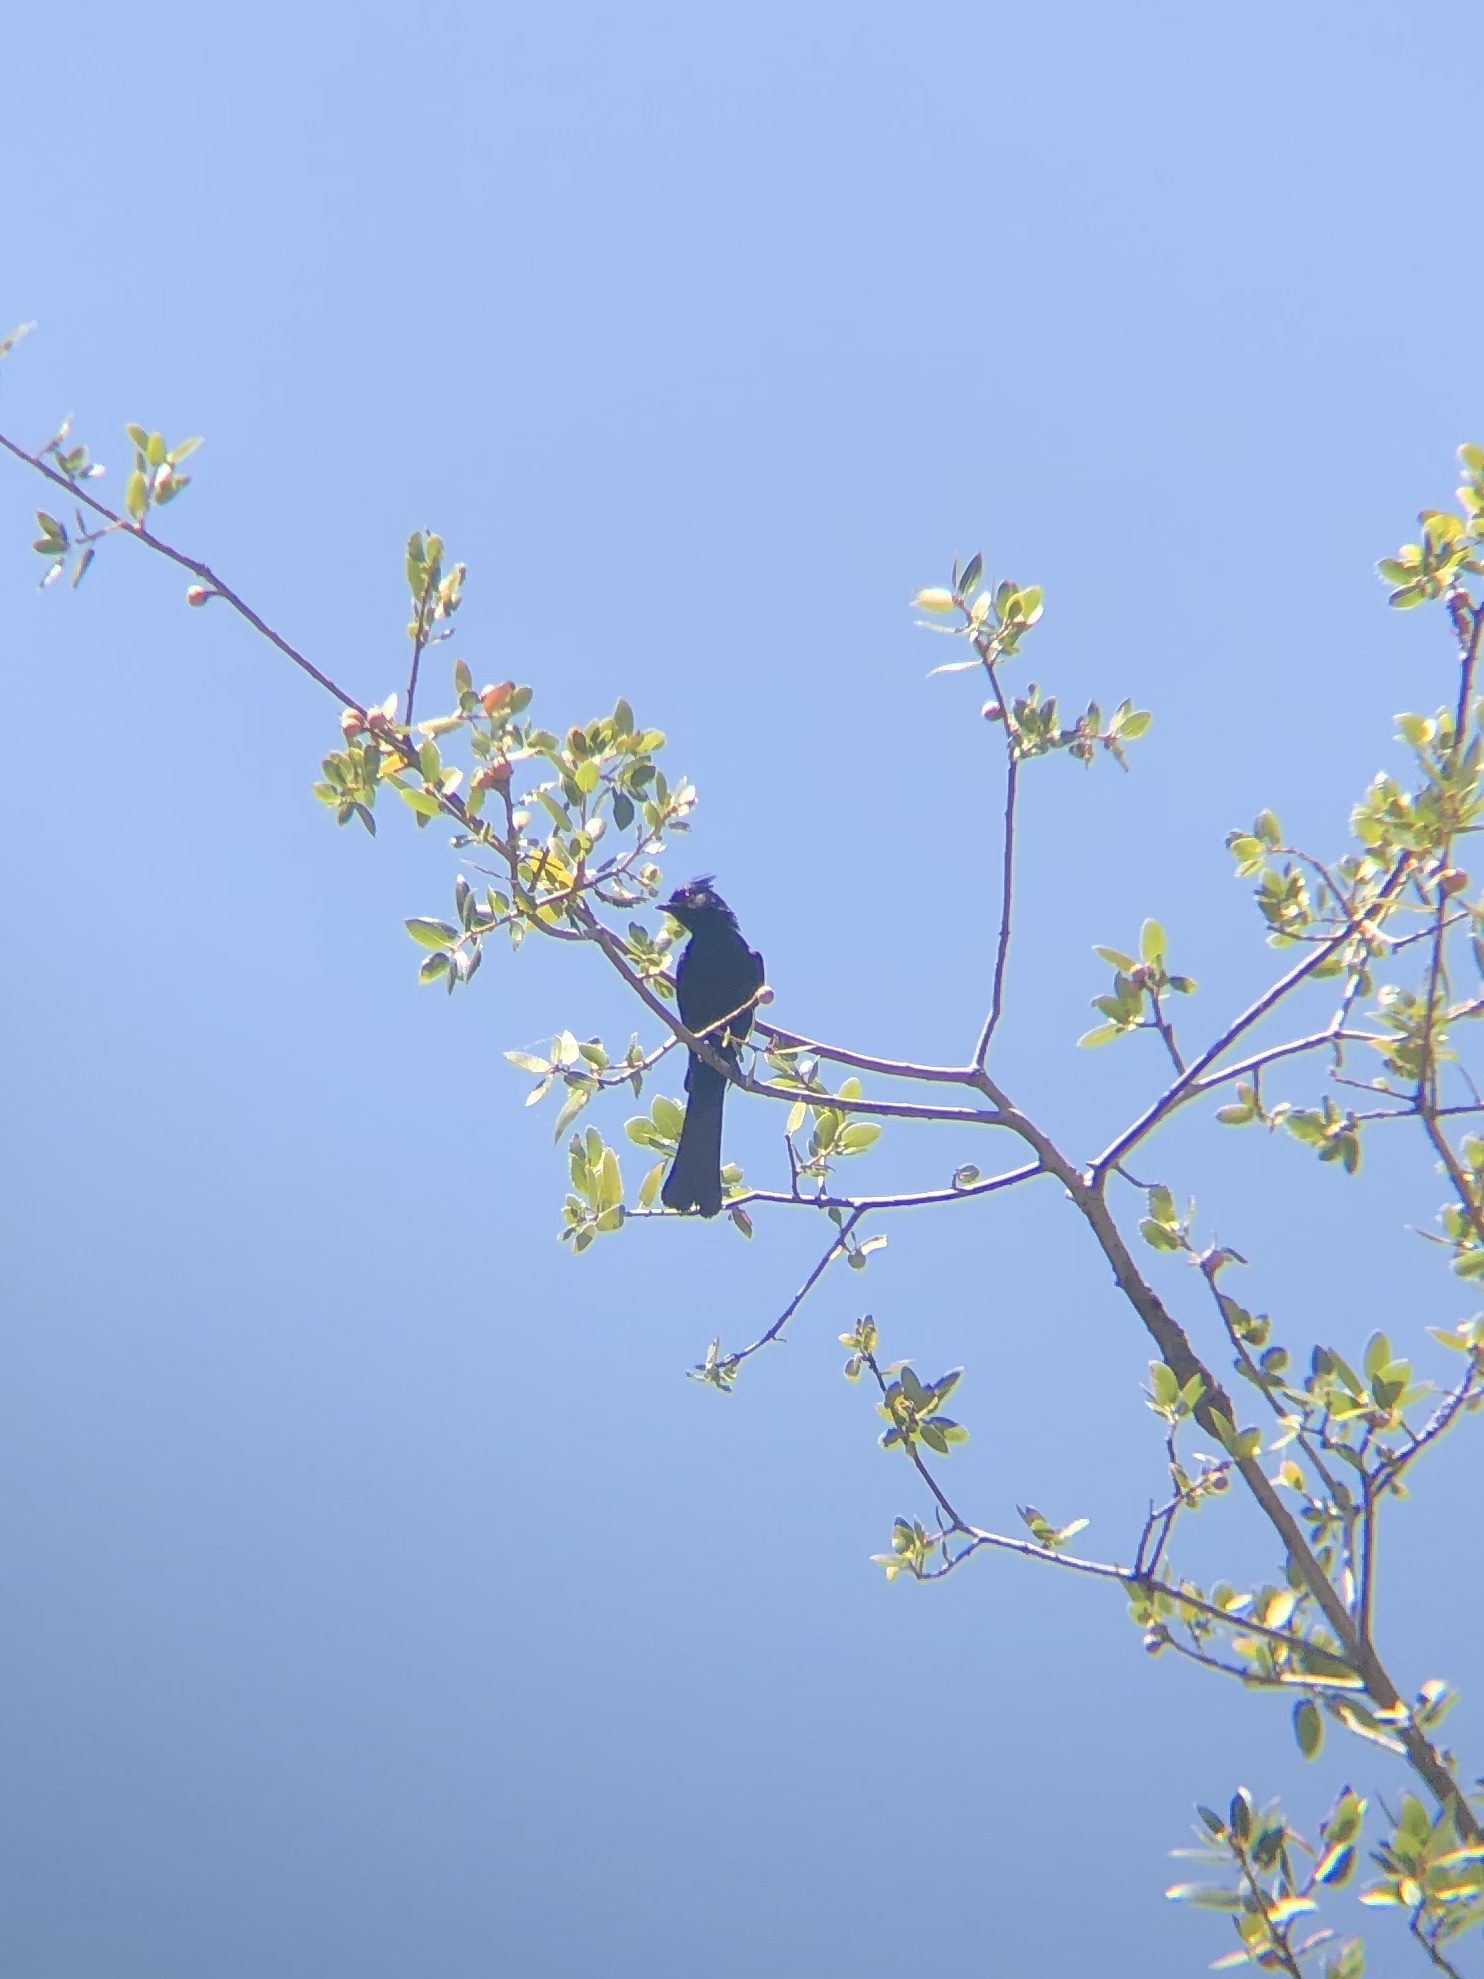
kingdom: Animalia
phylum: Chordata
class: Aves
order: Passeriformes
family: Ptilogonatidae
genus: Phainopepla
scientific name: Phainopepla nitens
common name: Phainopepla
